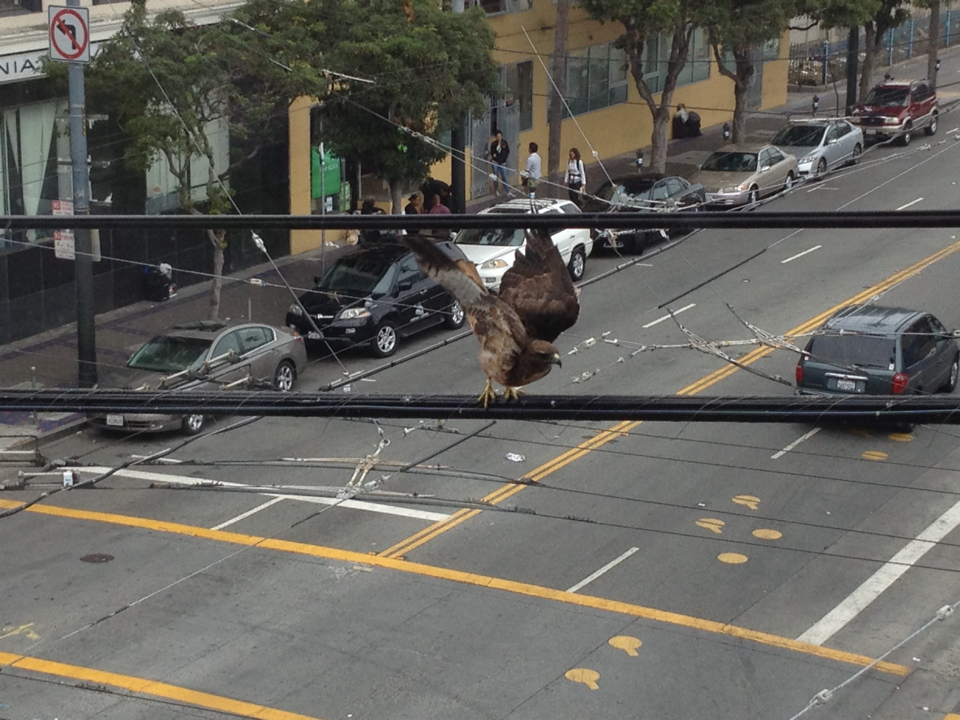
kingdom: Animalia
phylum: Chordata
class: Aves
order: Accipitriformes
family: Accipitridae
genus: Buteo
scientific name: Buteo jamaicensis
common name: Red-tailed hawk
